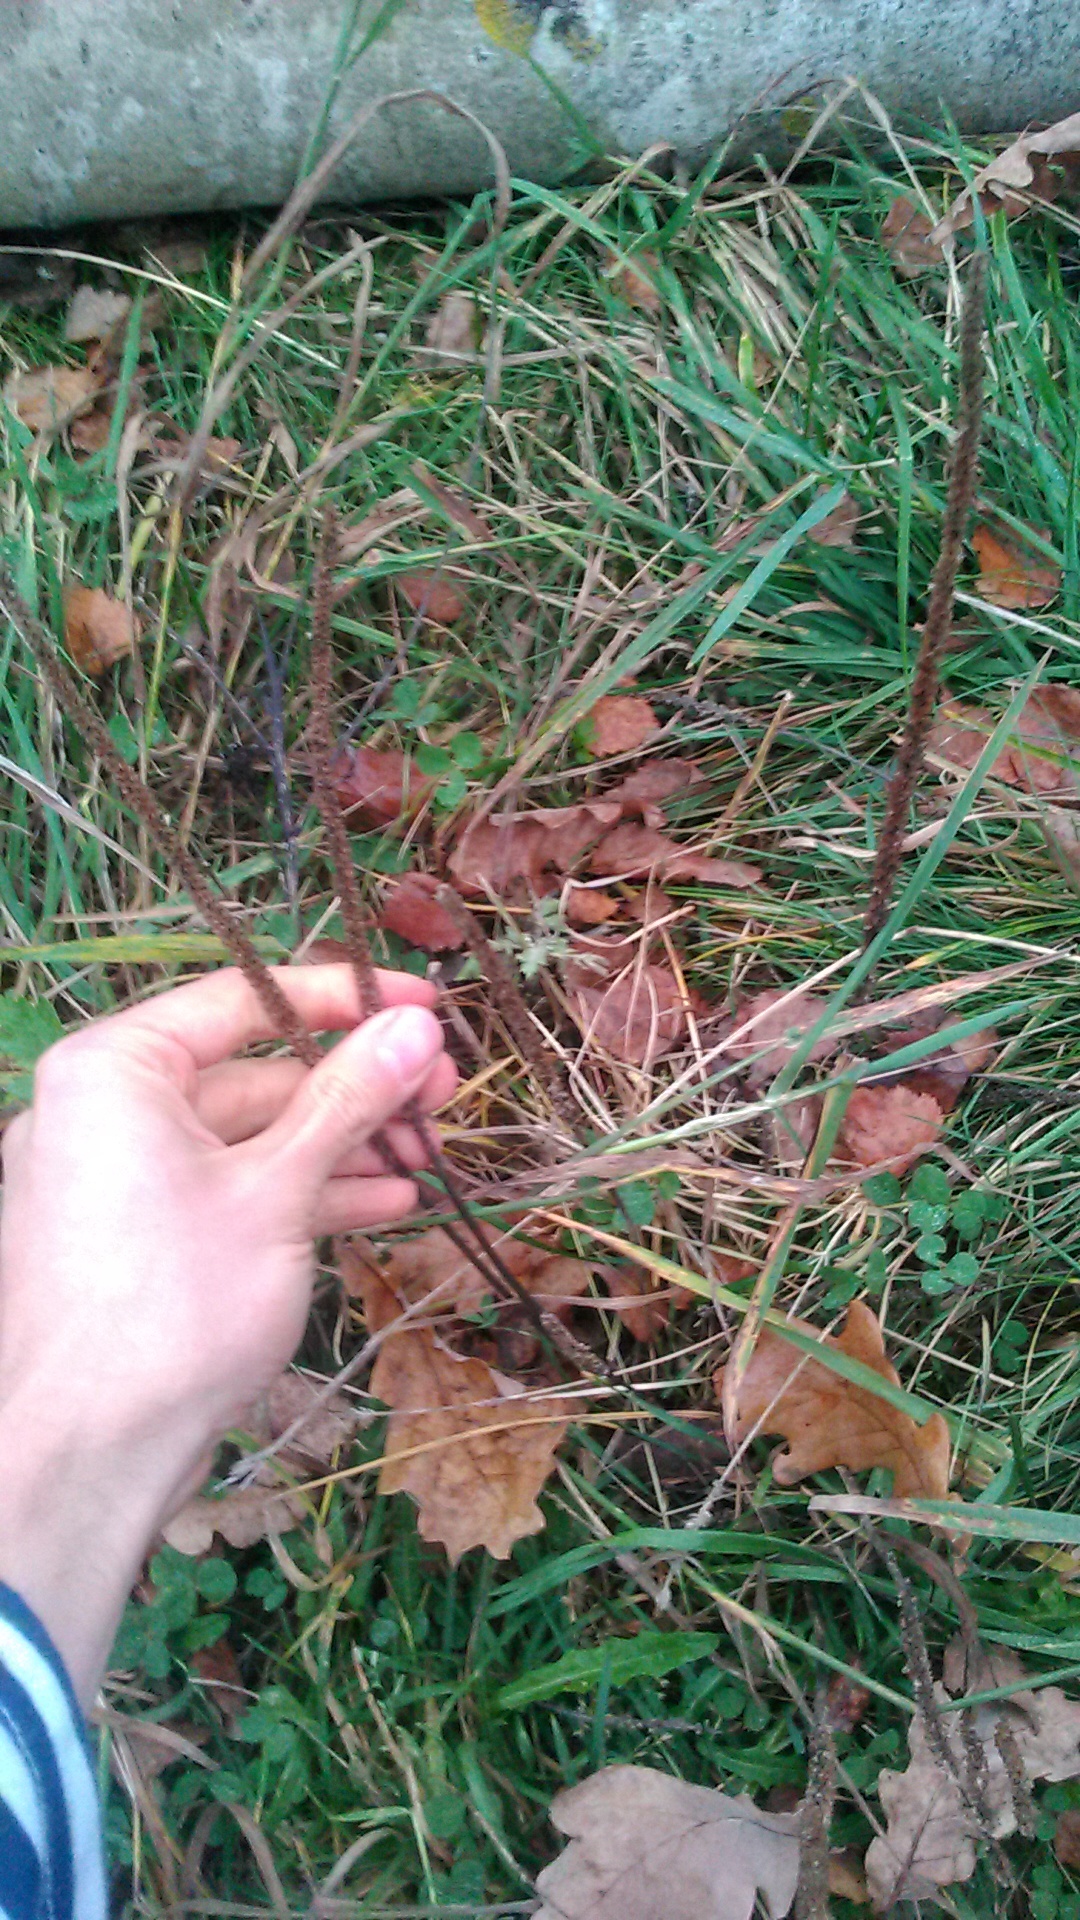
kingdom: Plantae
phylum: Tracheophyta
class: Magnoliopsida
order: Lamiales
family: Plantaginaceae
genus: Plantago
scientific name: Plantago major
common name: Common plantain
